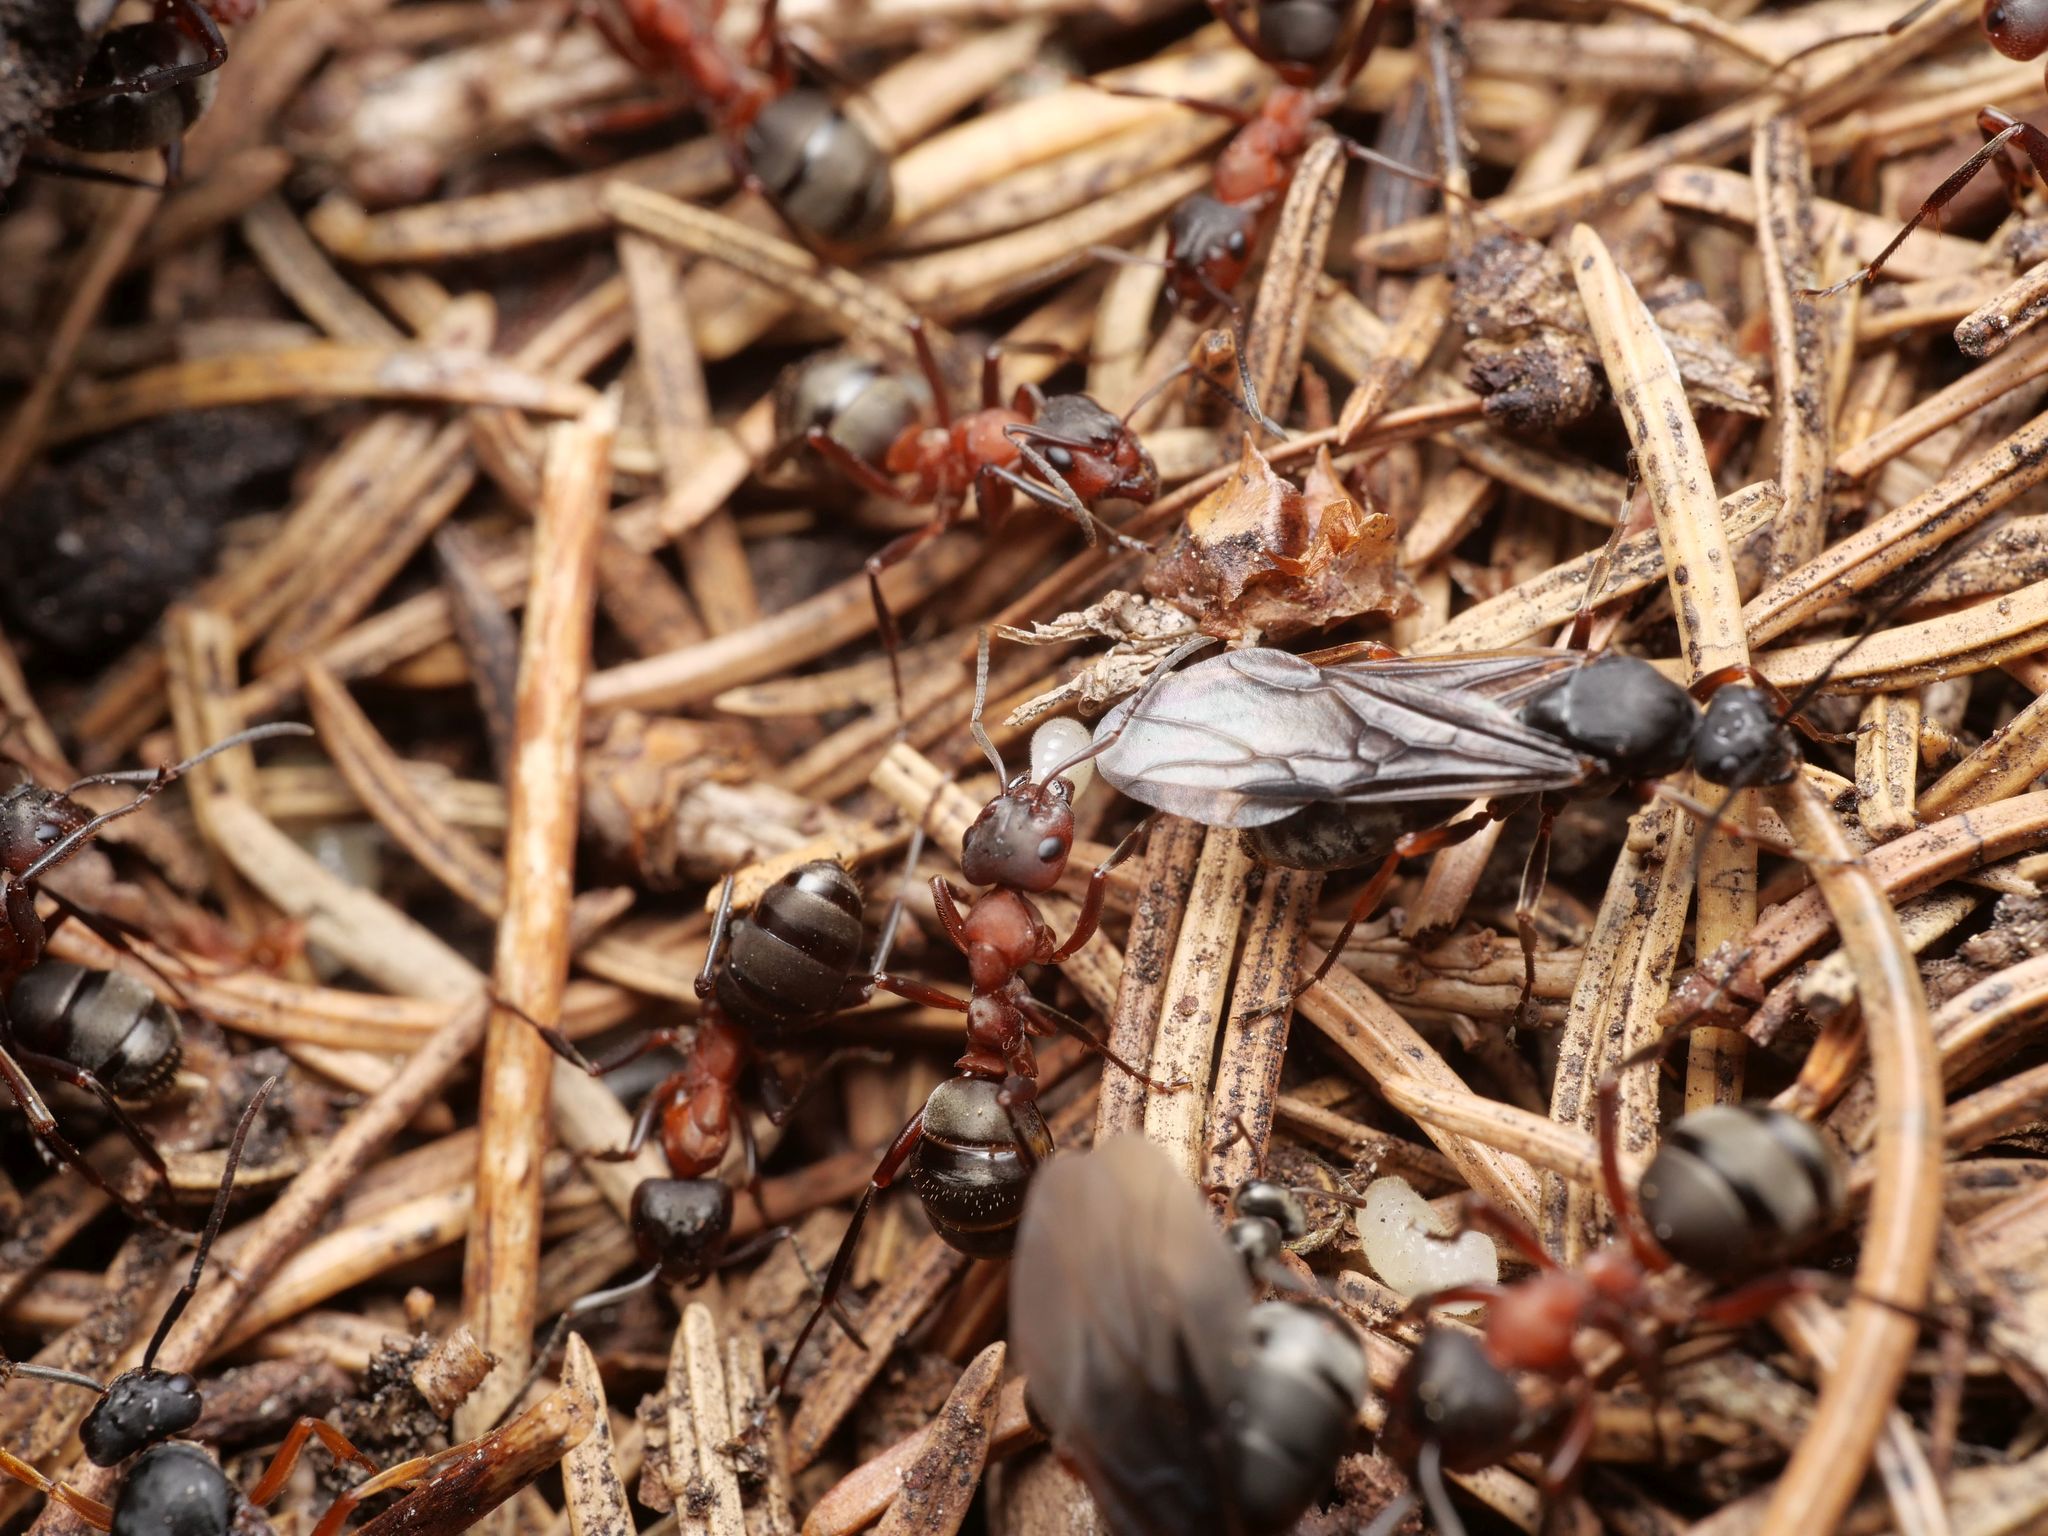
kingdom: Animalia
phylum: Arthropoda
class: Insecta
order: Hymenoptera
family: Formicidae
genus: Formica
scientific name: Formica sanguinea
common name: Blood-red ant
